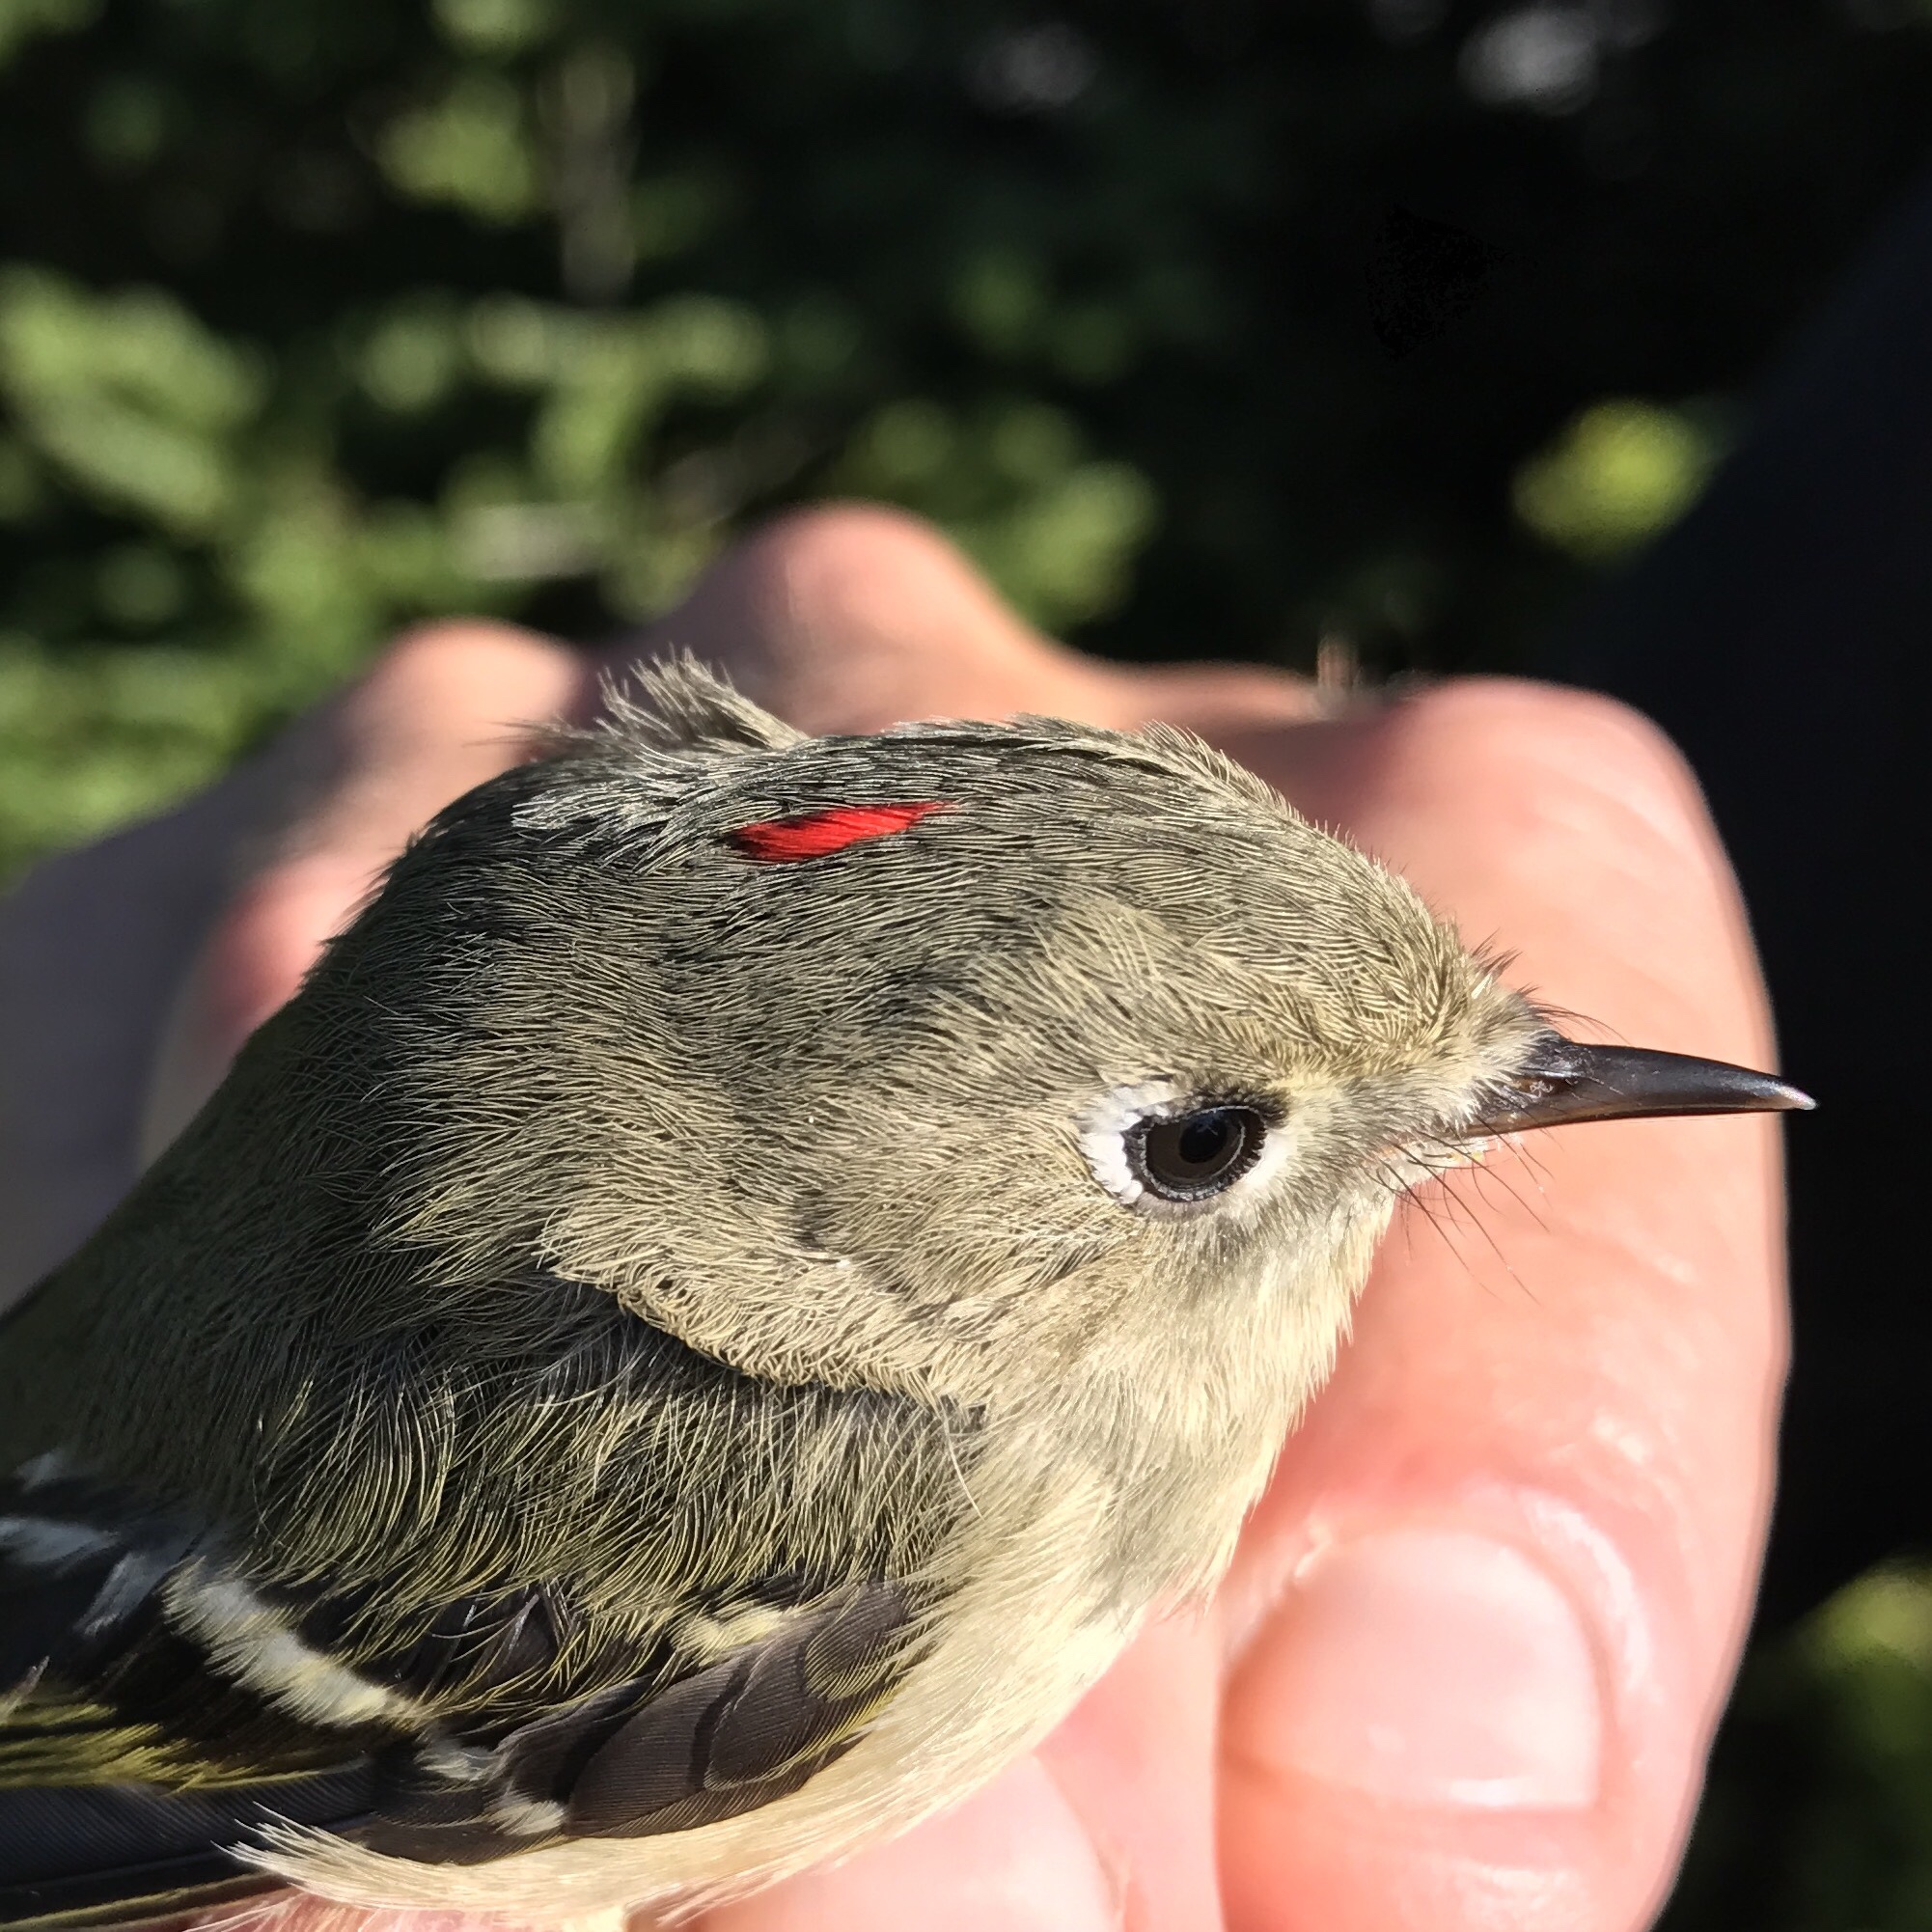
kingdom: Animalia
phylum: Chordata
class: Aves
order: Passeriformes
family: Regulidae
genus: Regulus
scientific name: Regulus calendula
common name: Ruby-crowned kinglet
